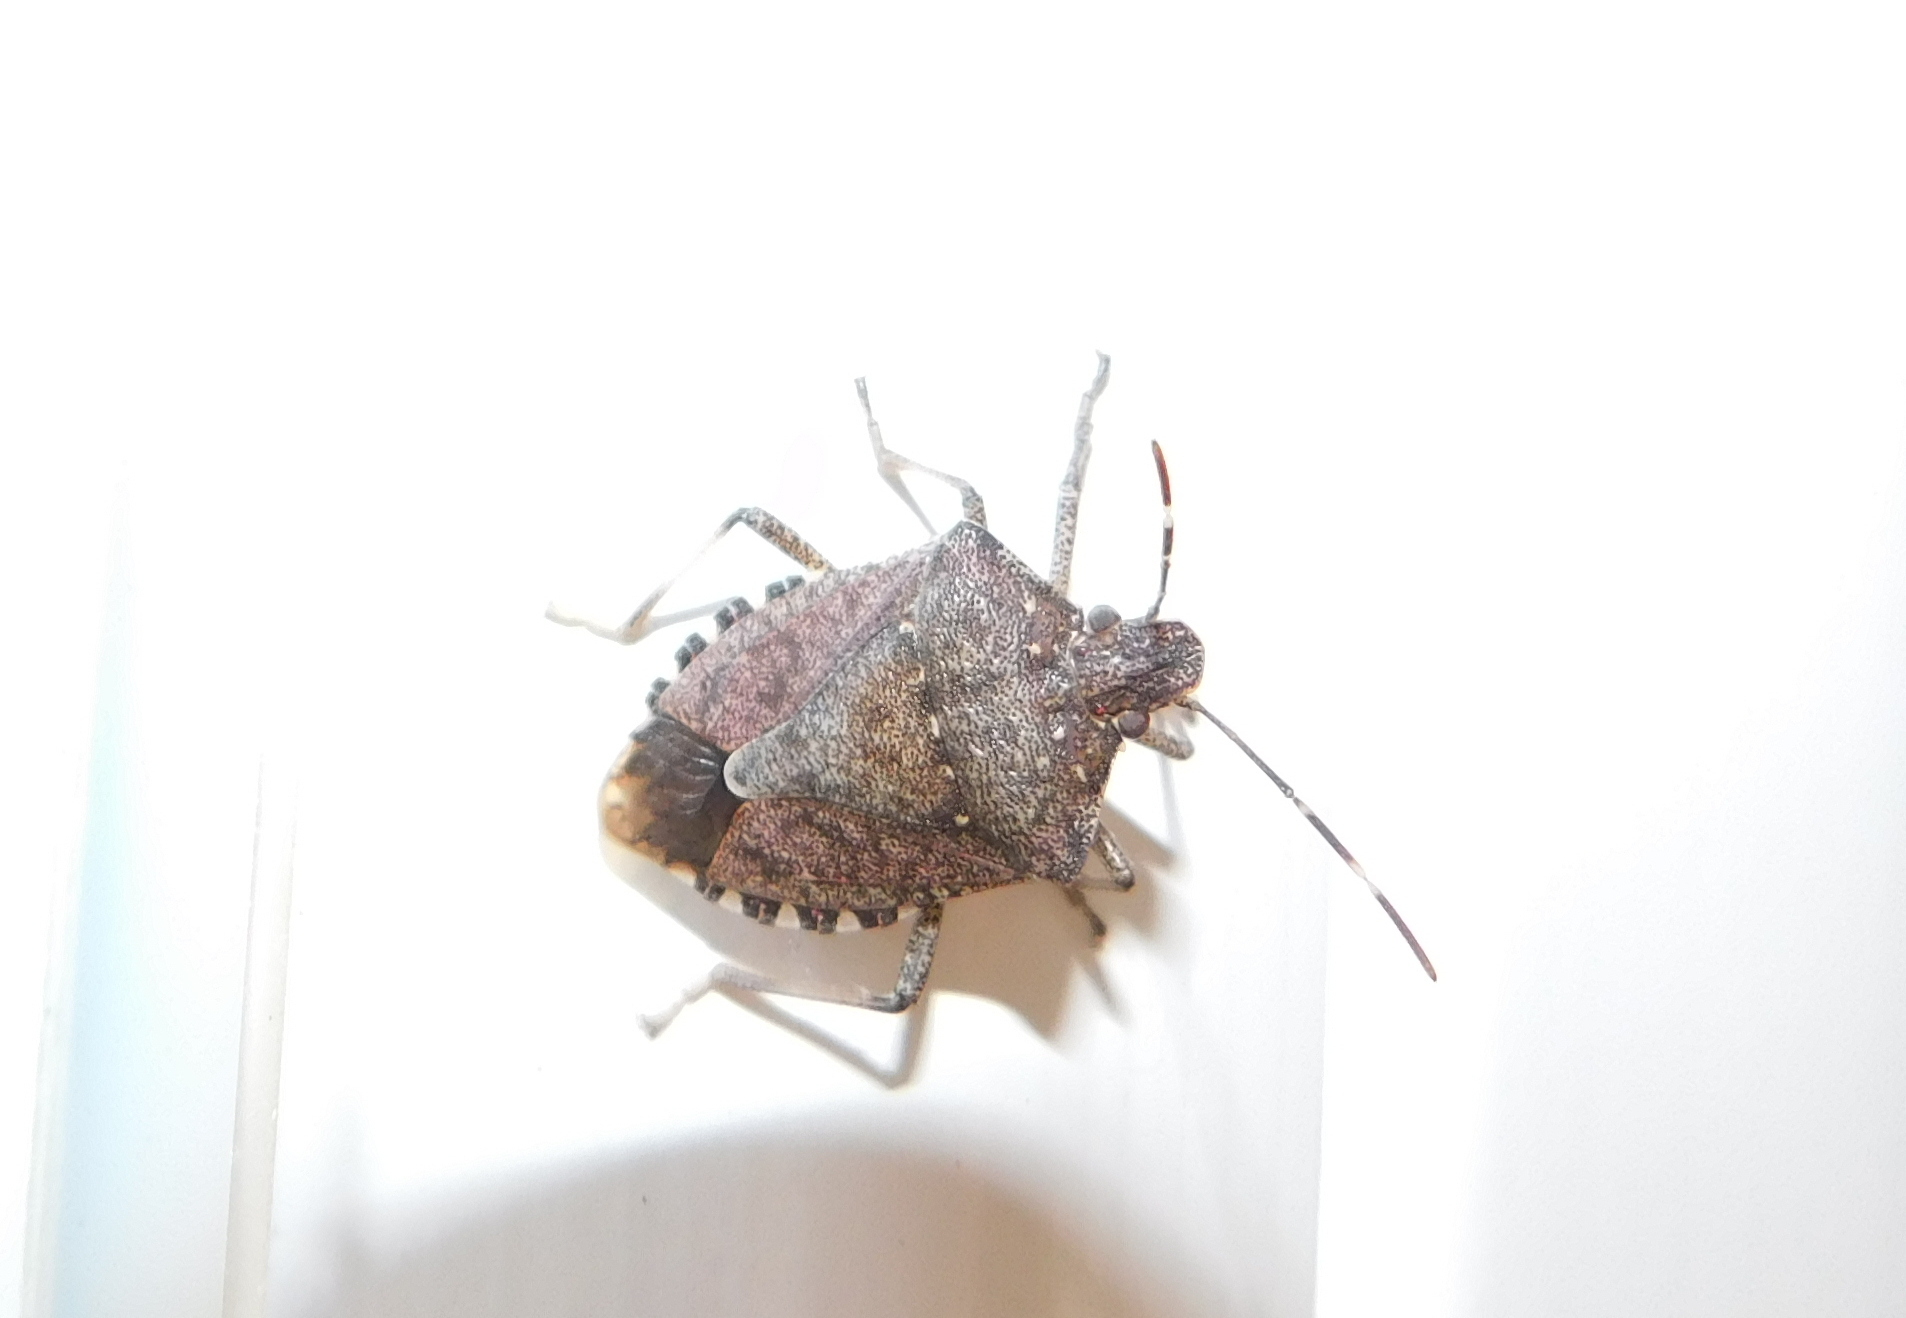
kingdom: Animalia
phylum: Arthropoda
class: Insecta
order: Hemiptera
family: Pentatomidae
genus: Halyomorpha
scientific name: Halyomorpha halys
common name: Brown marmorated stink bug
